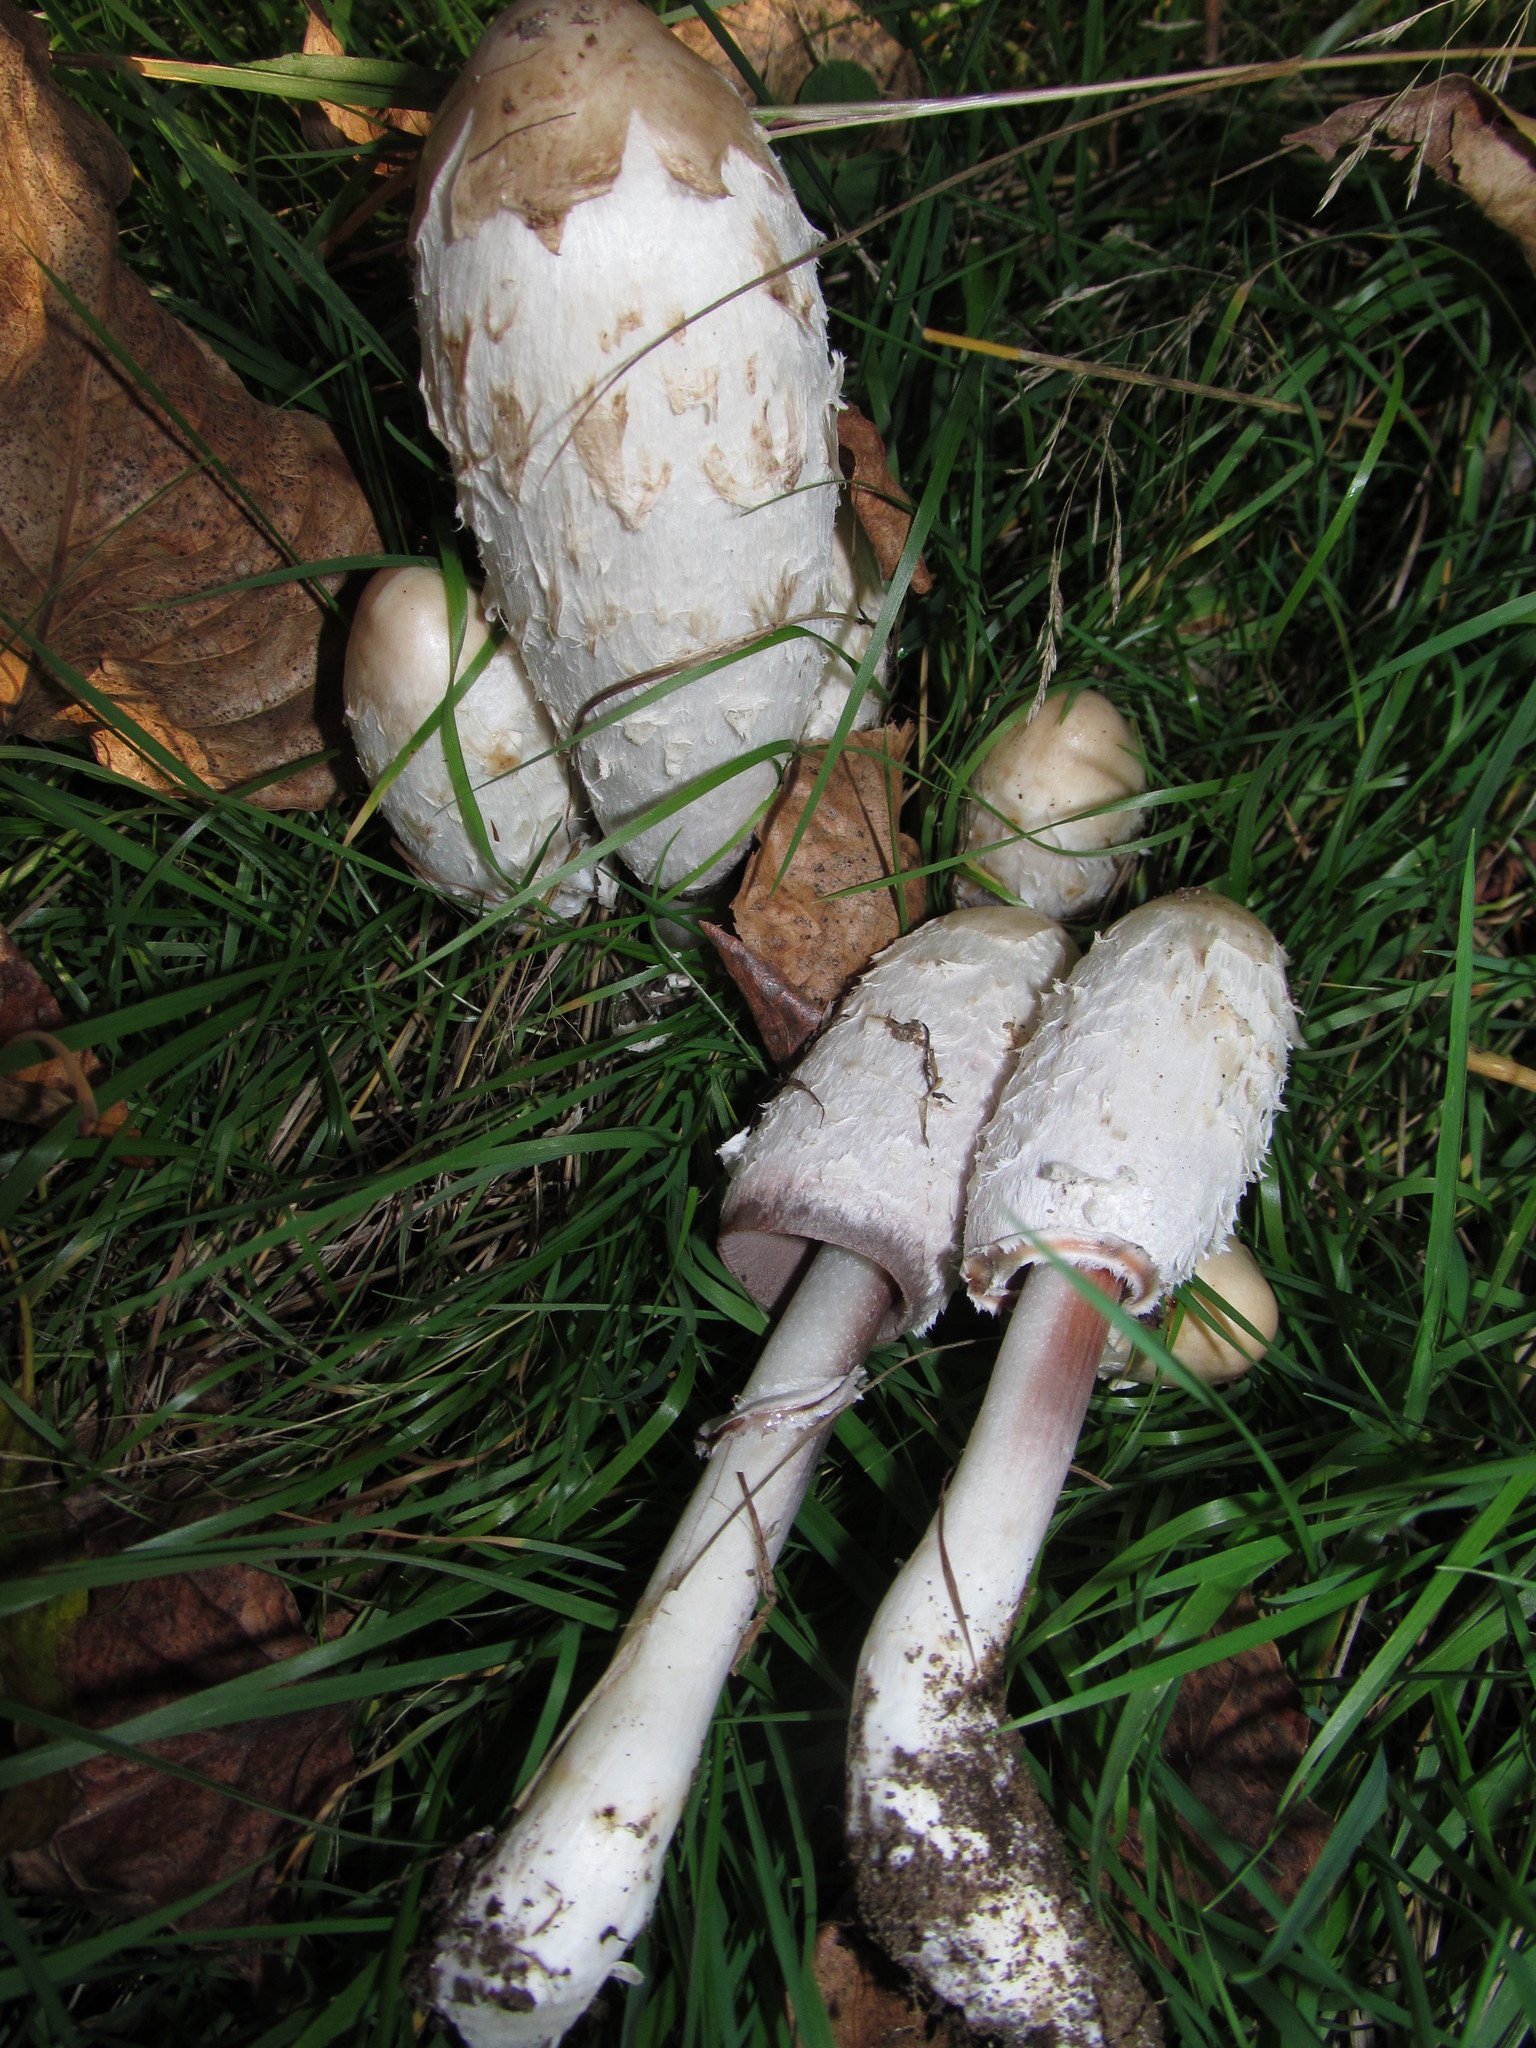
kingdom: Fungi
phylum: Basidiomycota
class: Agaricomycetes
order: Agaricales
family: Agaricaceae
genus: Coprinus
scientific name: Coprinus comatus
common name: Lawyer's wig
